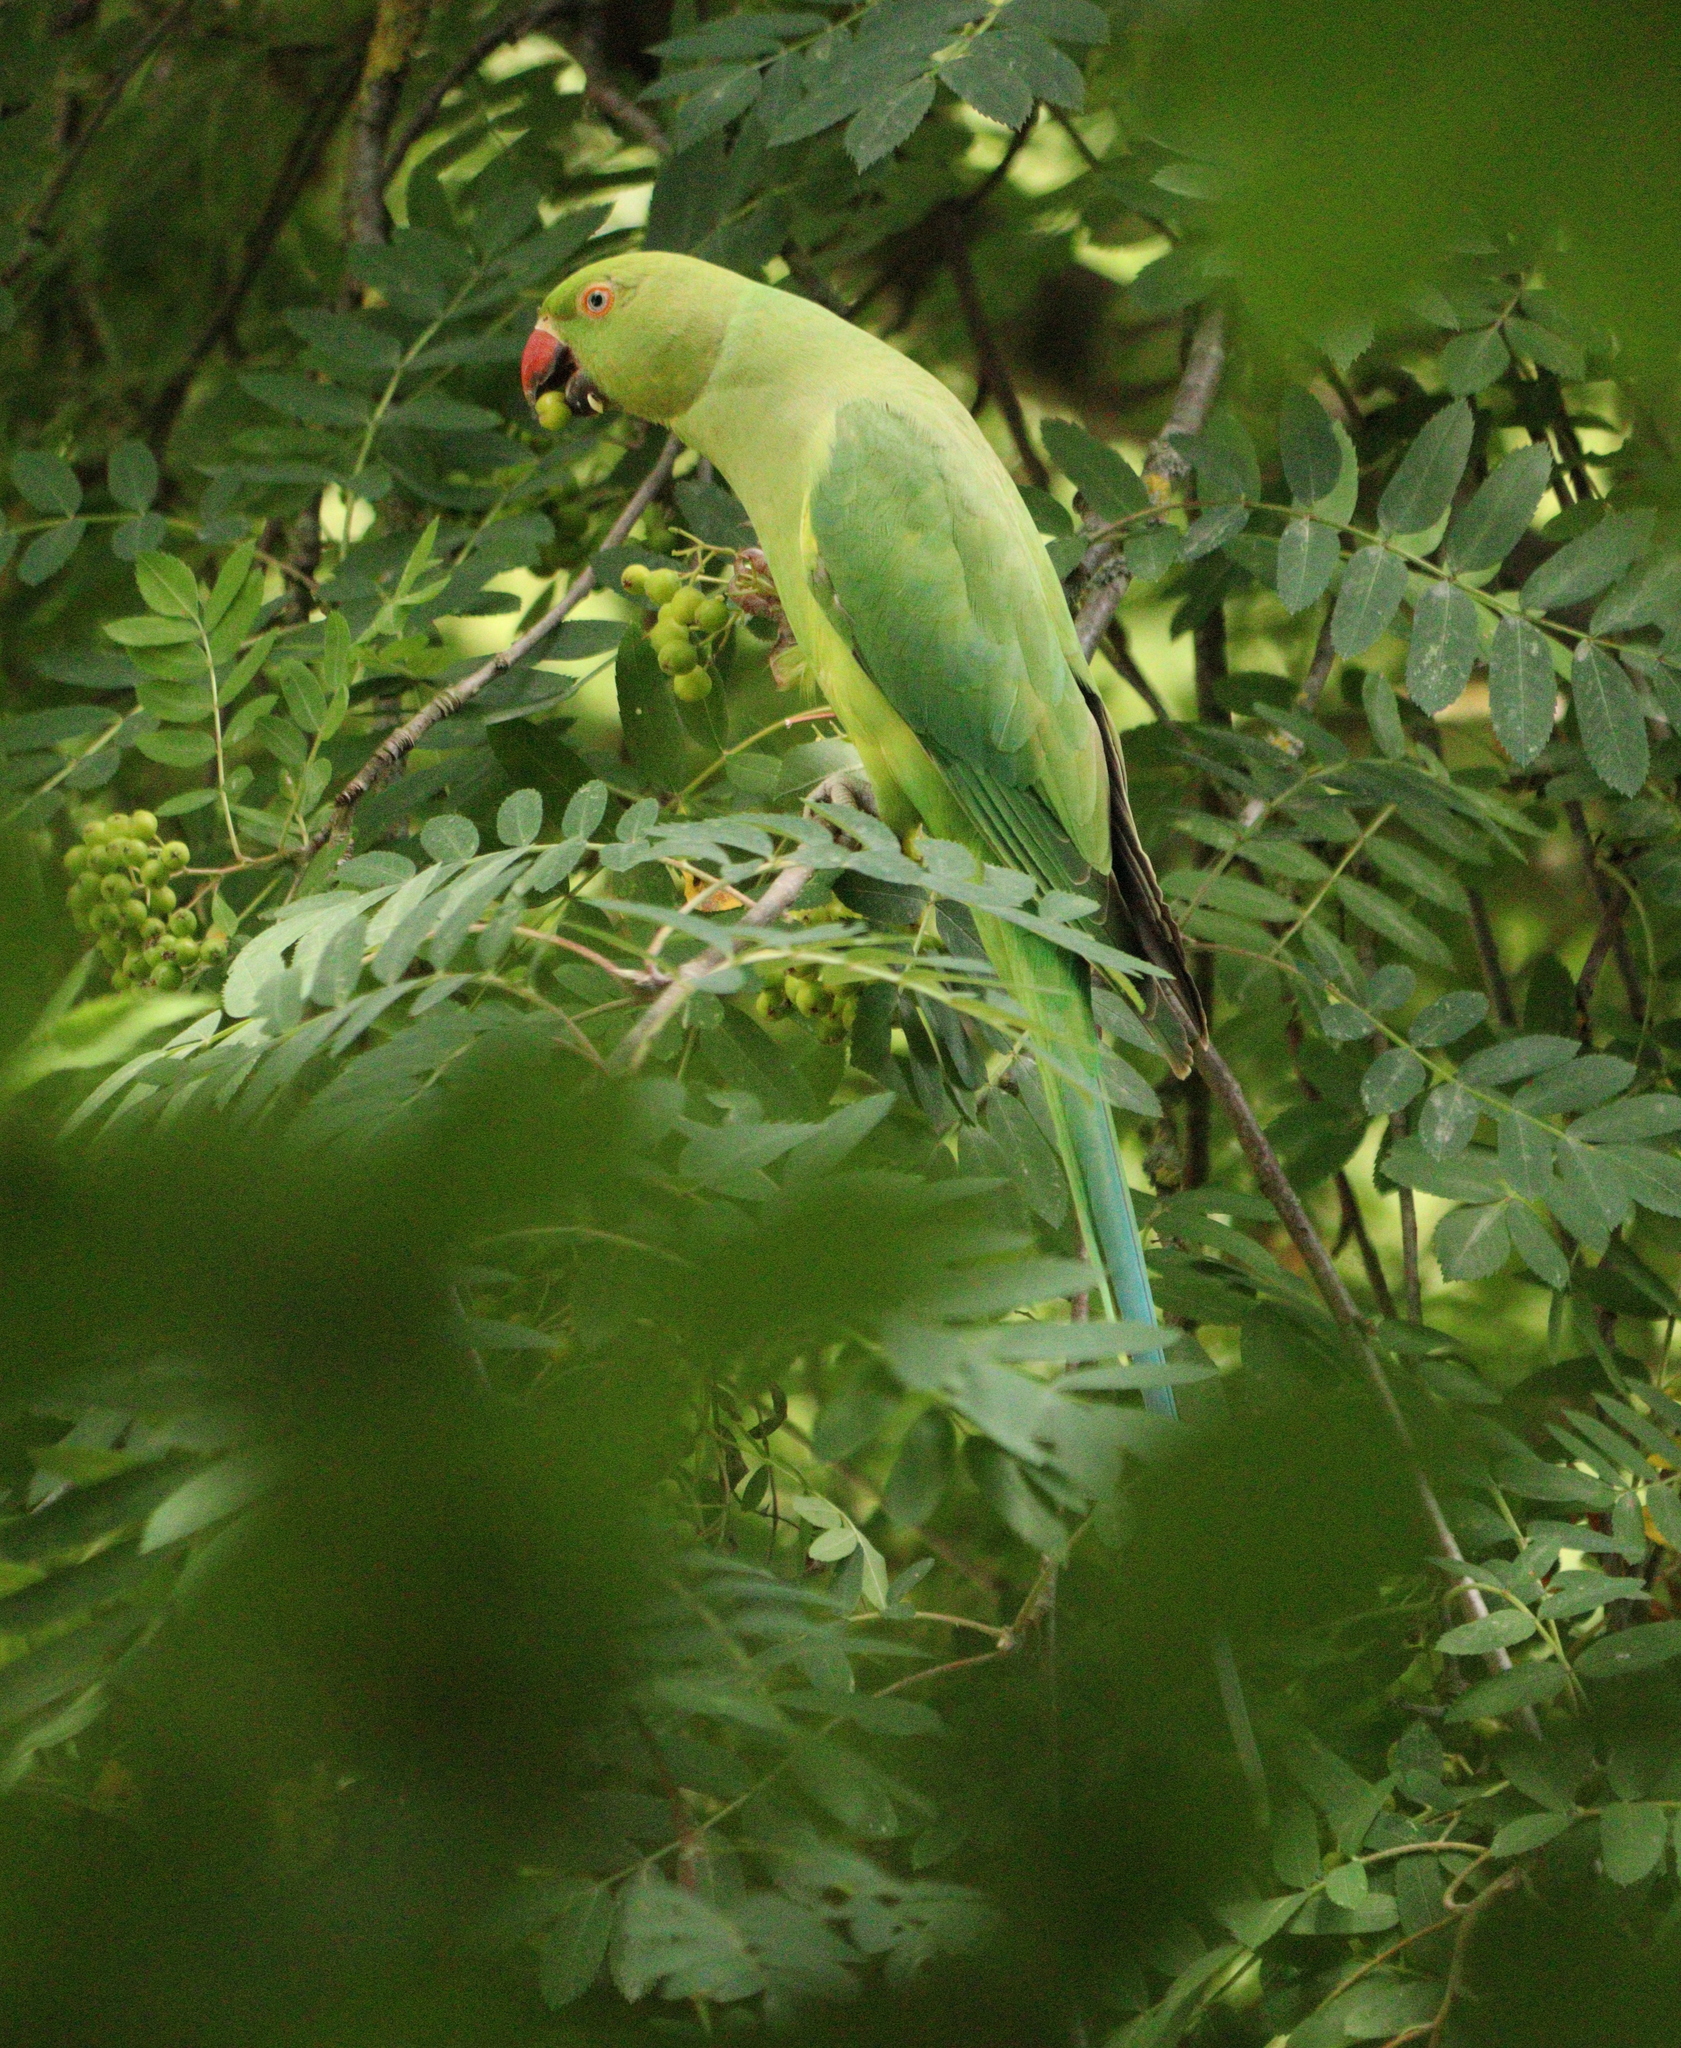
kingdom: Animalia
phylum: Chordata
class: Aves
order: Psittaciformes
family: Psittacidae
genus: Psittacula
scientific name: Psittacula krameri
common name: Rose-ringed parakeet
